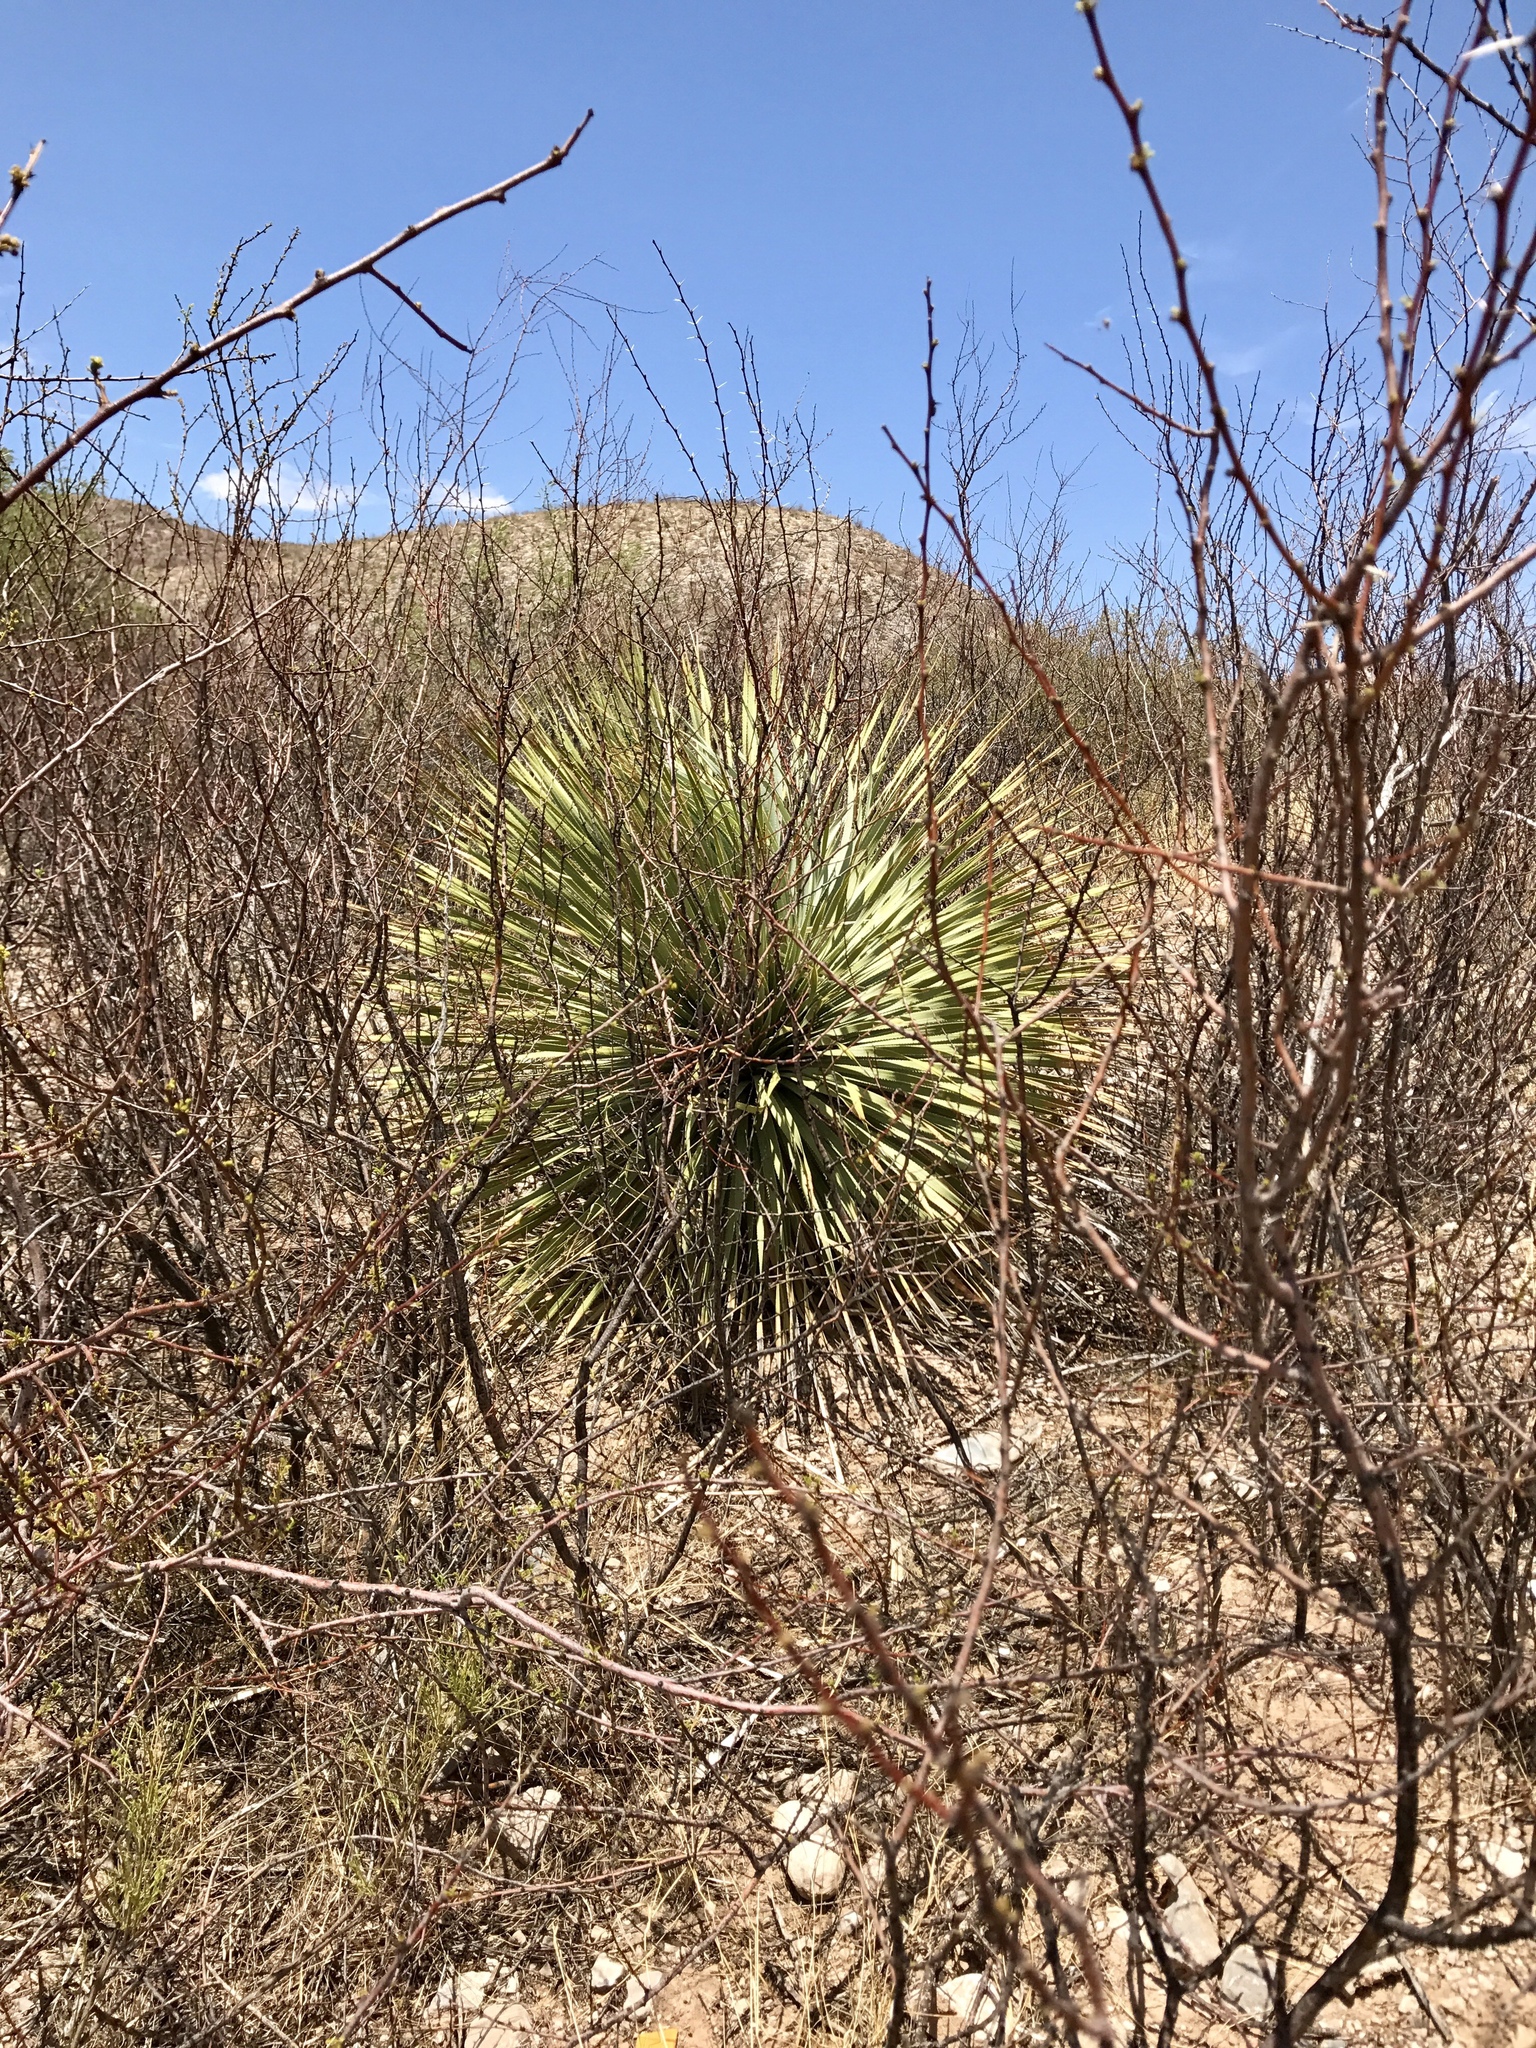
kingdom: Plantae
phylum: Tracheophyta
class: Liliopsida
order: Asparagales
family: Asparagaceae
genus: Dasylirion
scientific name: Dasylirion wheeleri
